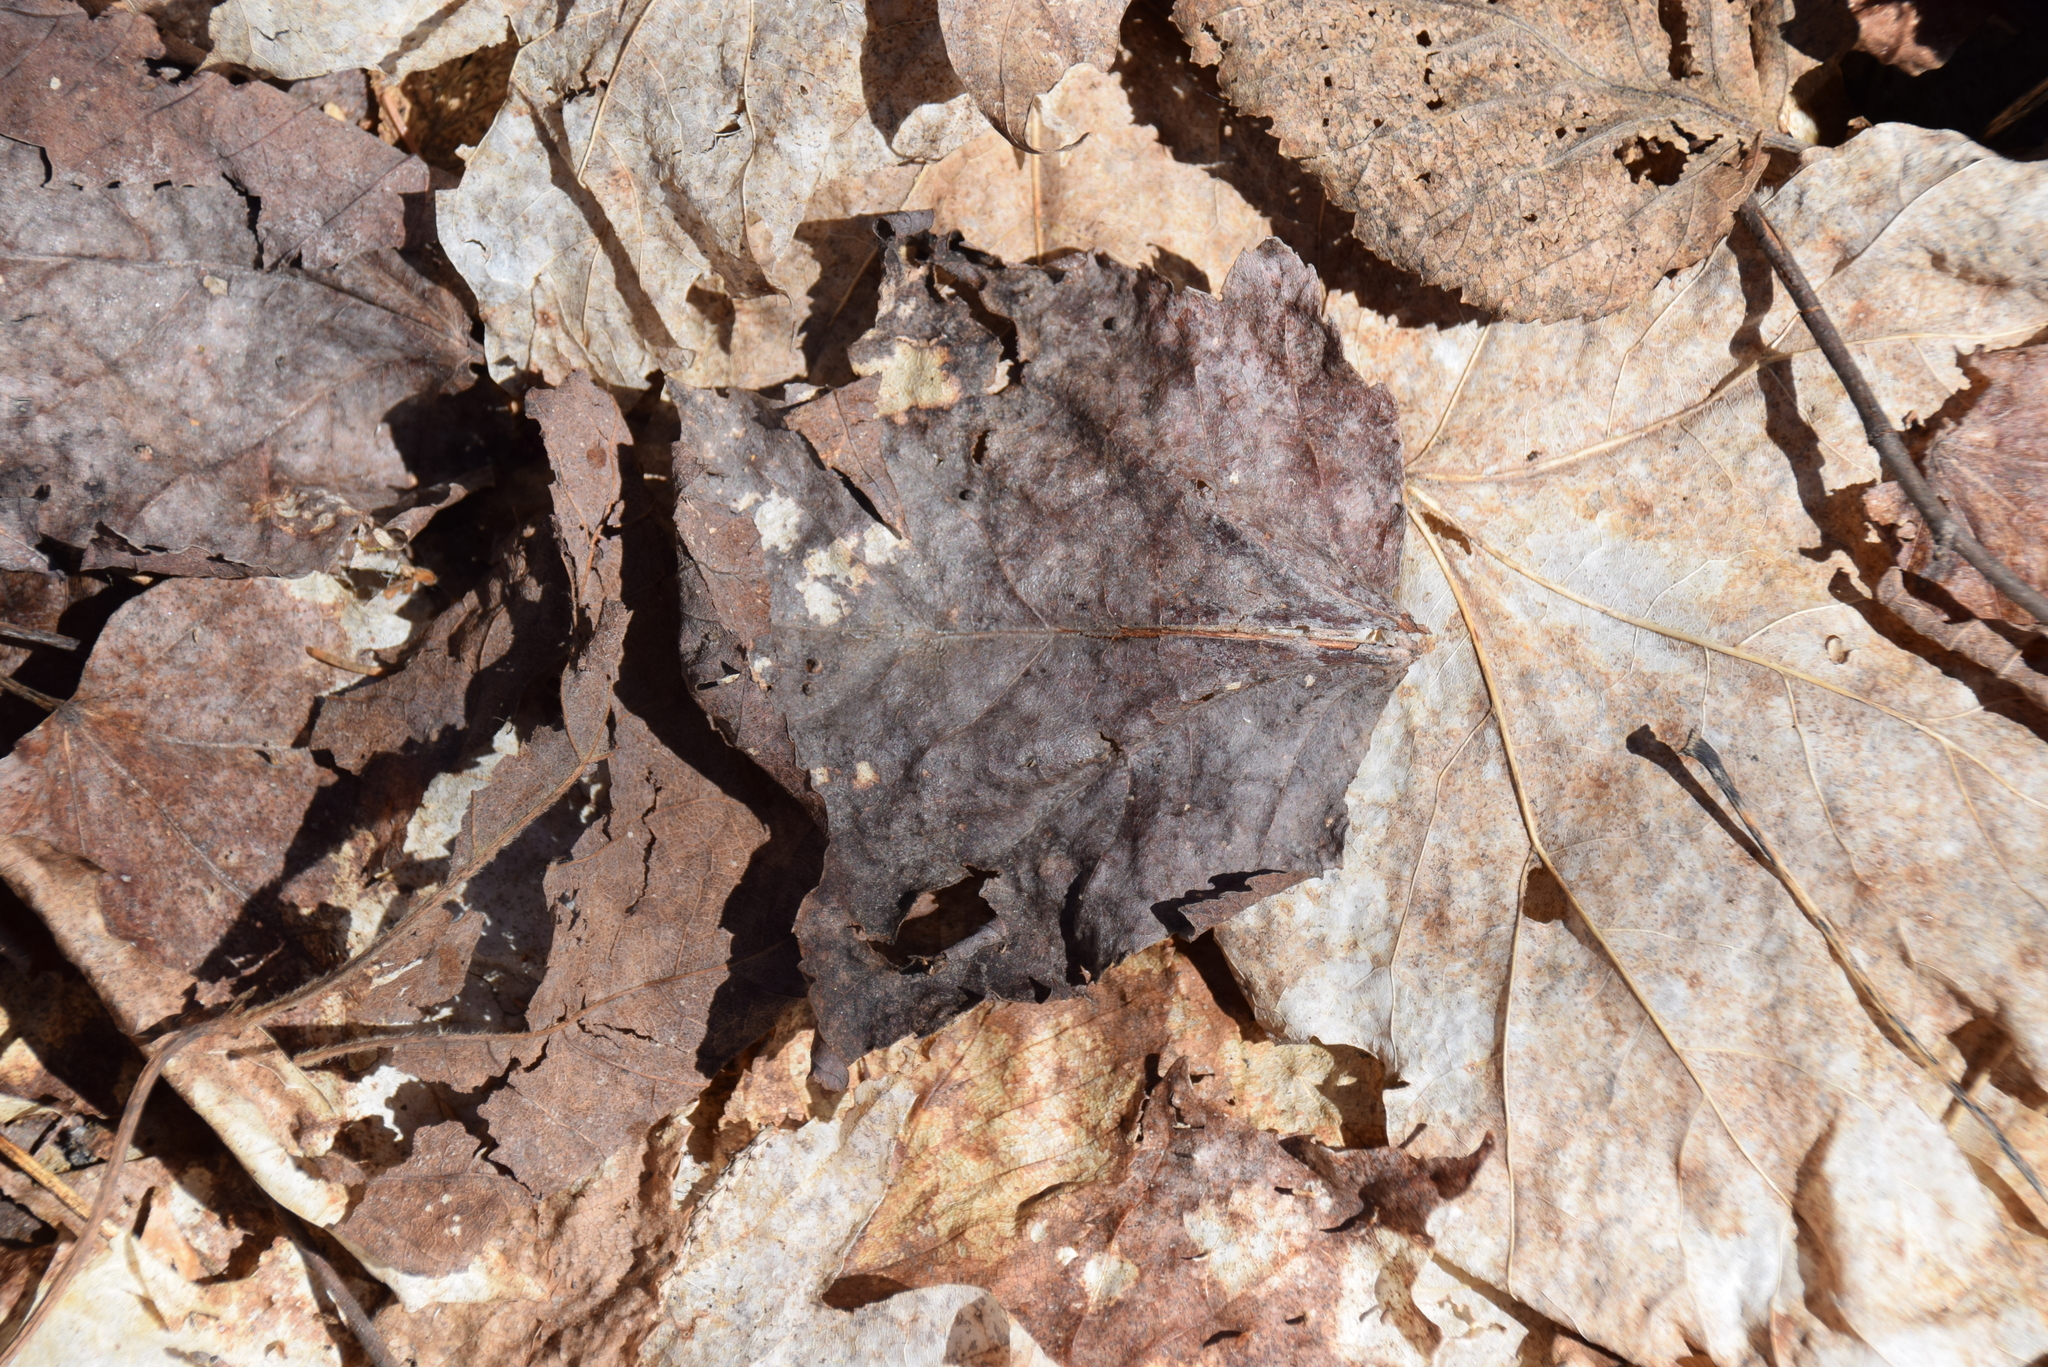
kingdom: Plantae
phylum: Tracheophyta
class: Magnoliopsida
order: Sapindales
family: Sapindaceae
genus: Acer
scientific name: Acer rubrum
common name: Red maple
